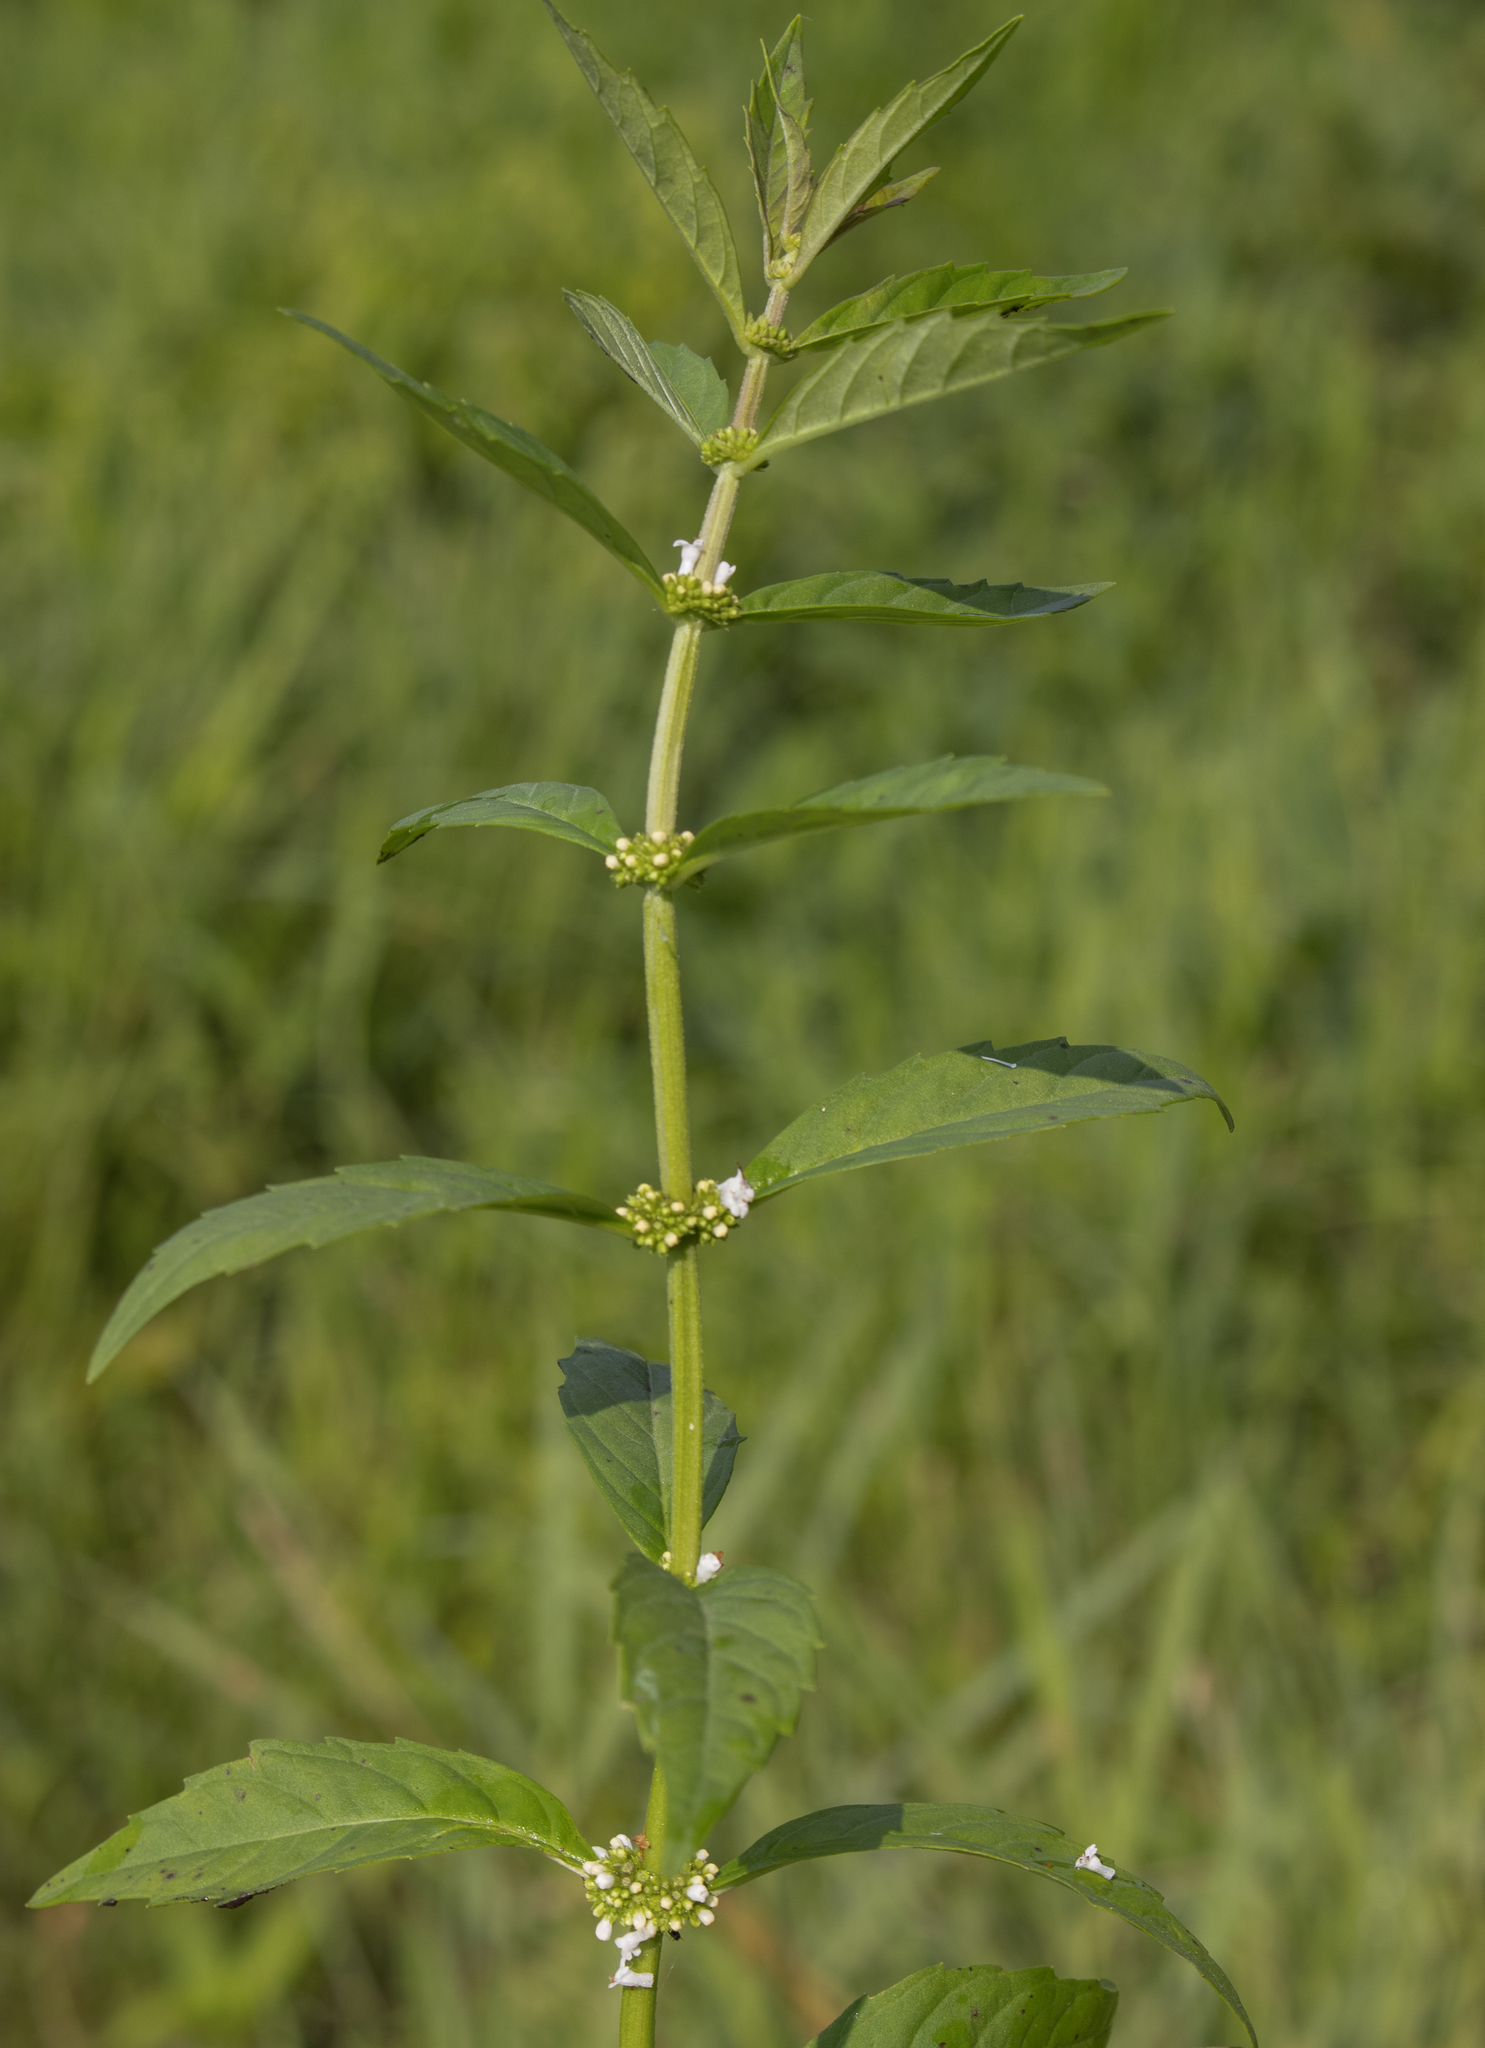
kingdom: Plantae
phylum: Tracheophyta
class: Magnoliopsida
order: Lamiales
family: Lamiaceae
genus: Lycopus
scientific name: Lycopus uniflorus
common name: Northern bugleweed
